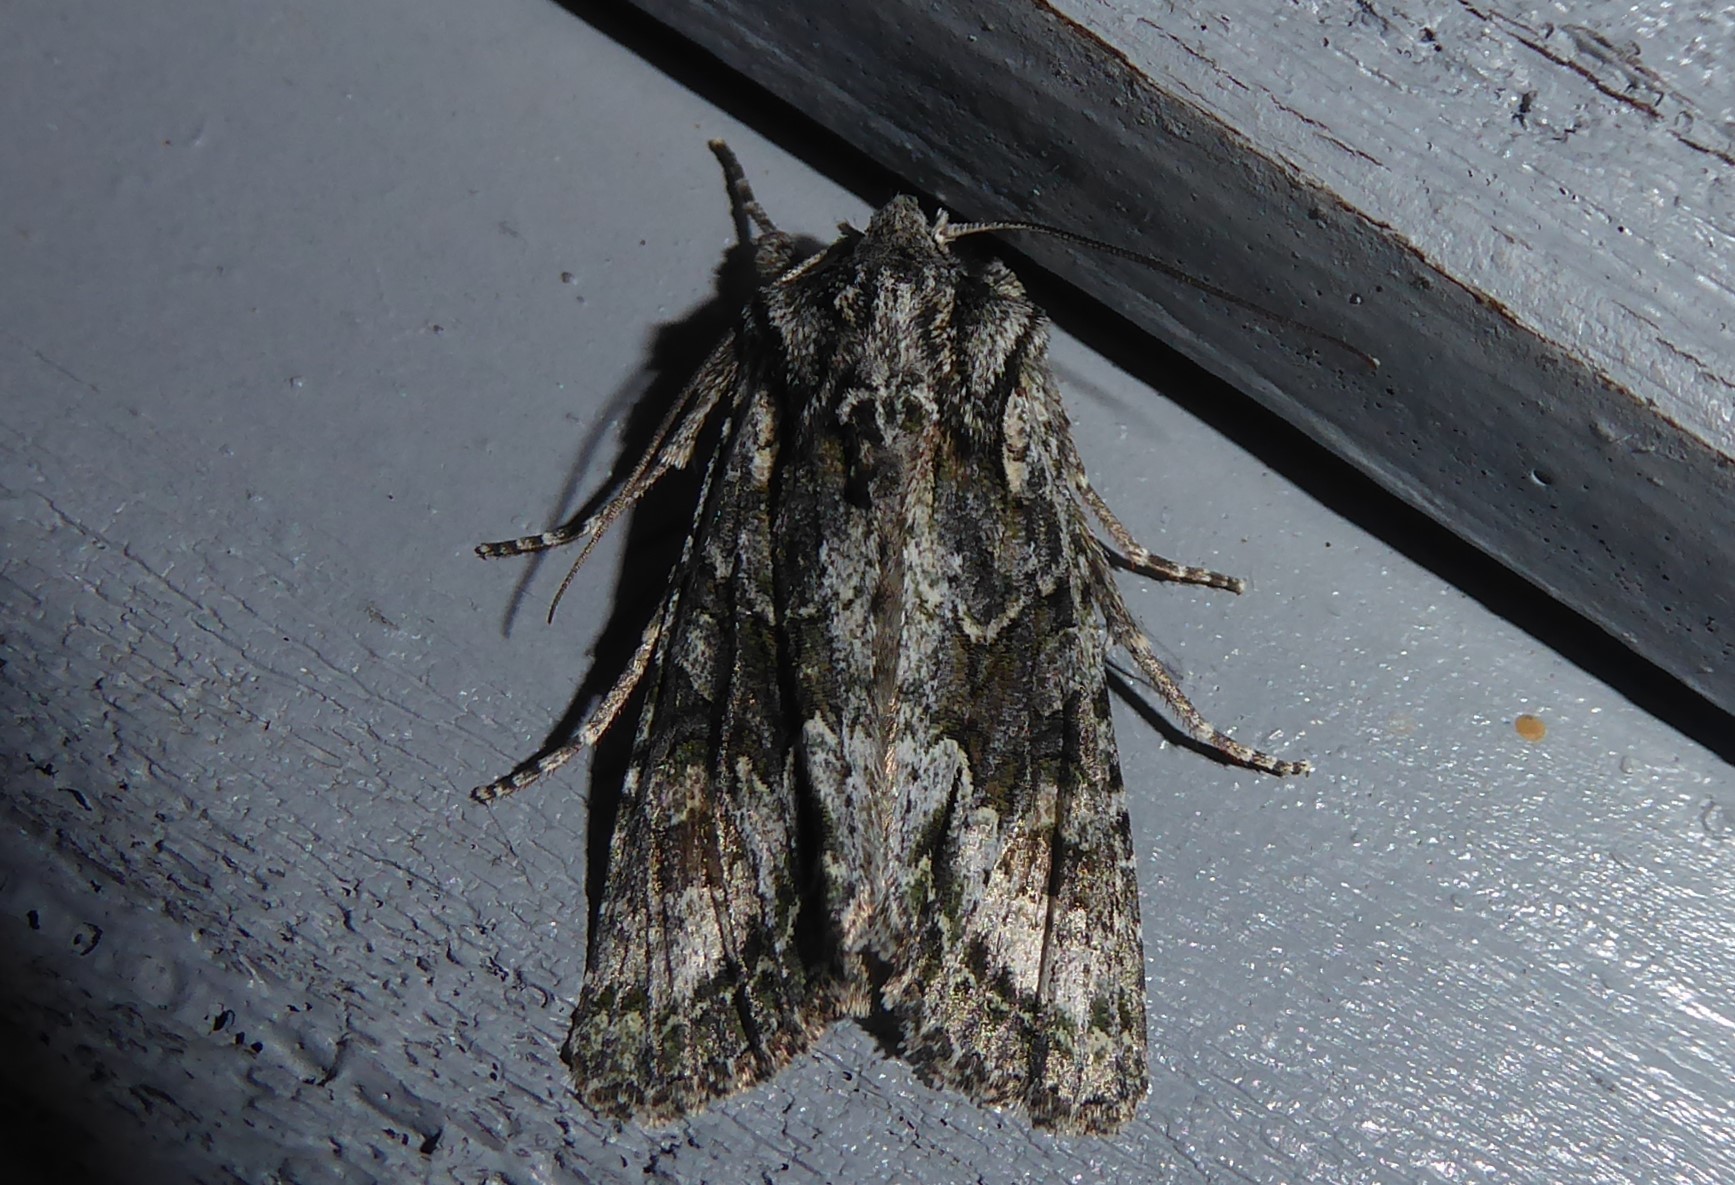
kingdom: Animalia
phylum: Arthropoda
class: Insecta
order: Lepidoptera
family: Noctuidae
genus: Ichneutica
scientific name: Ichneutica mutans
